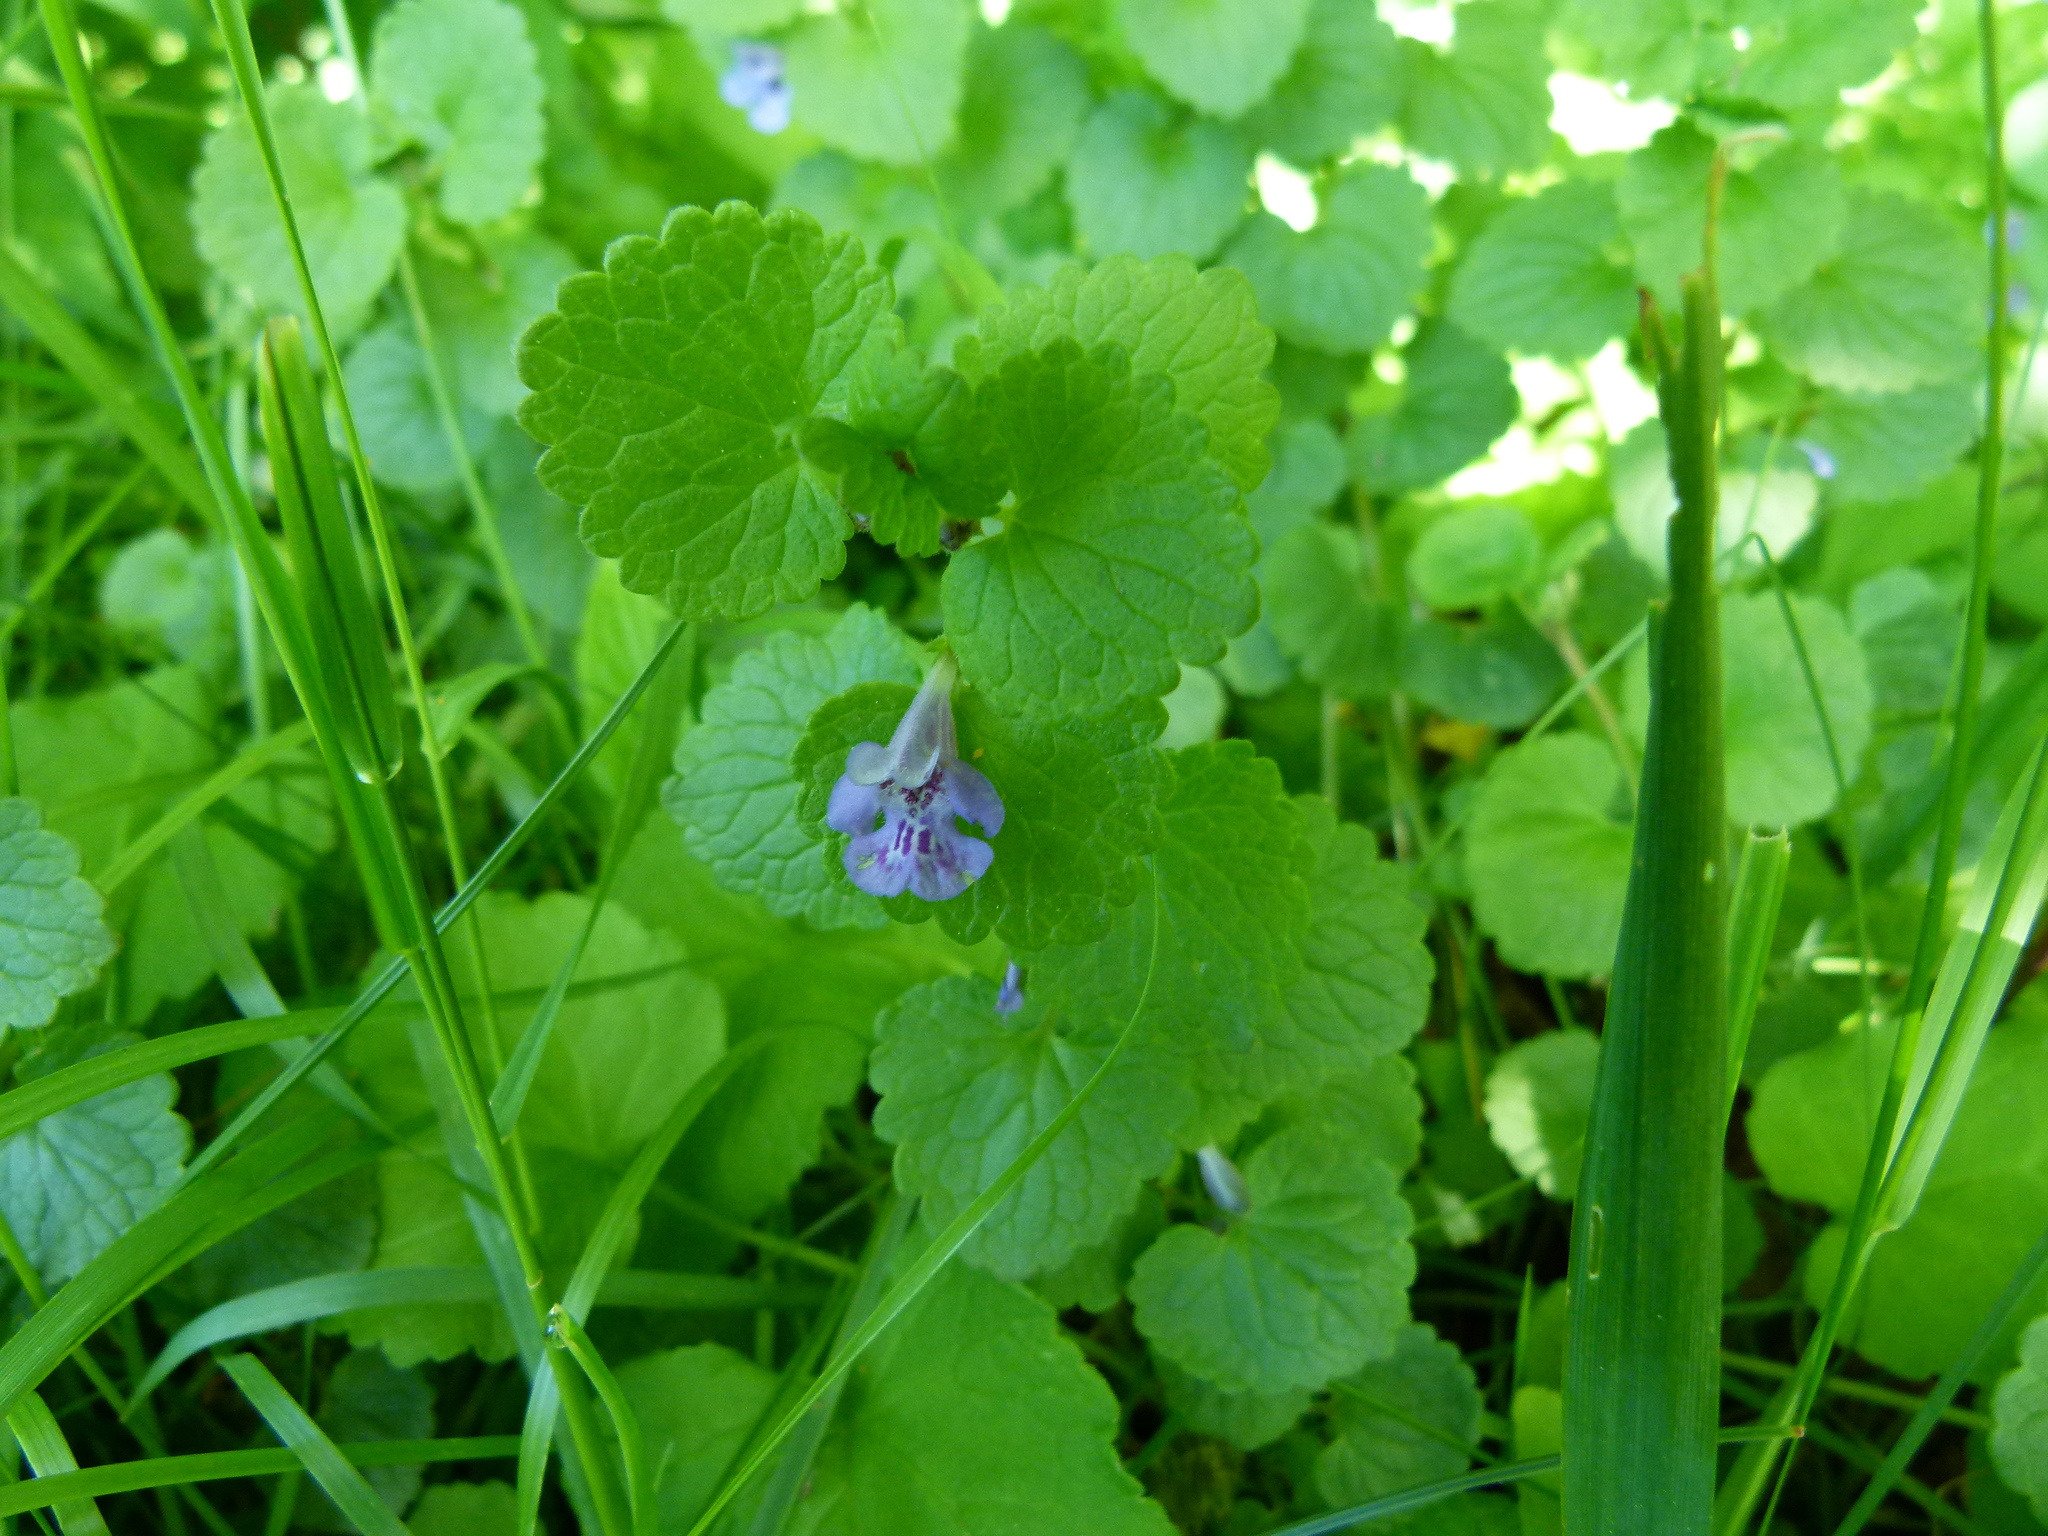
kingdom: Plantae
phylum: Tracheophyta
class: Magnoliopsida
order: Lamiales
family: Lamiaceae
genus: Glechoma
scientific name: Glechoma hederacea
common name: Ground ivy
